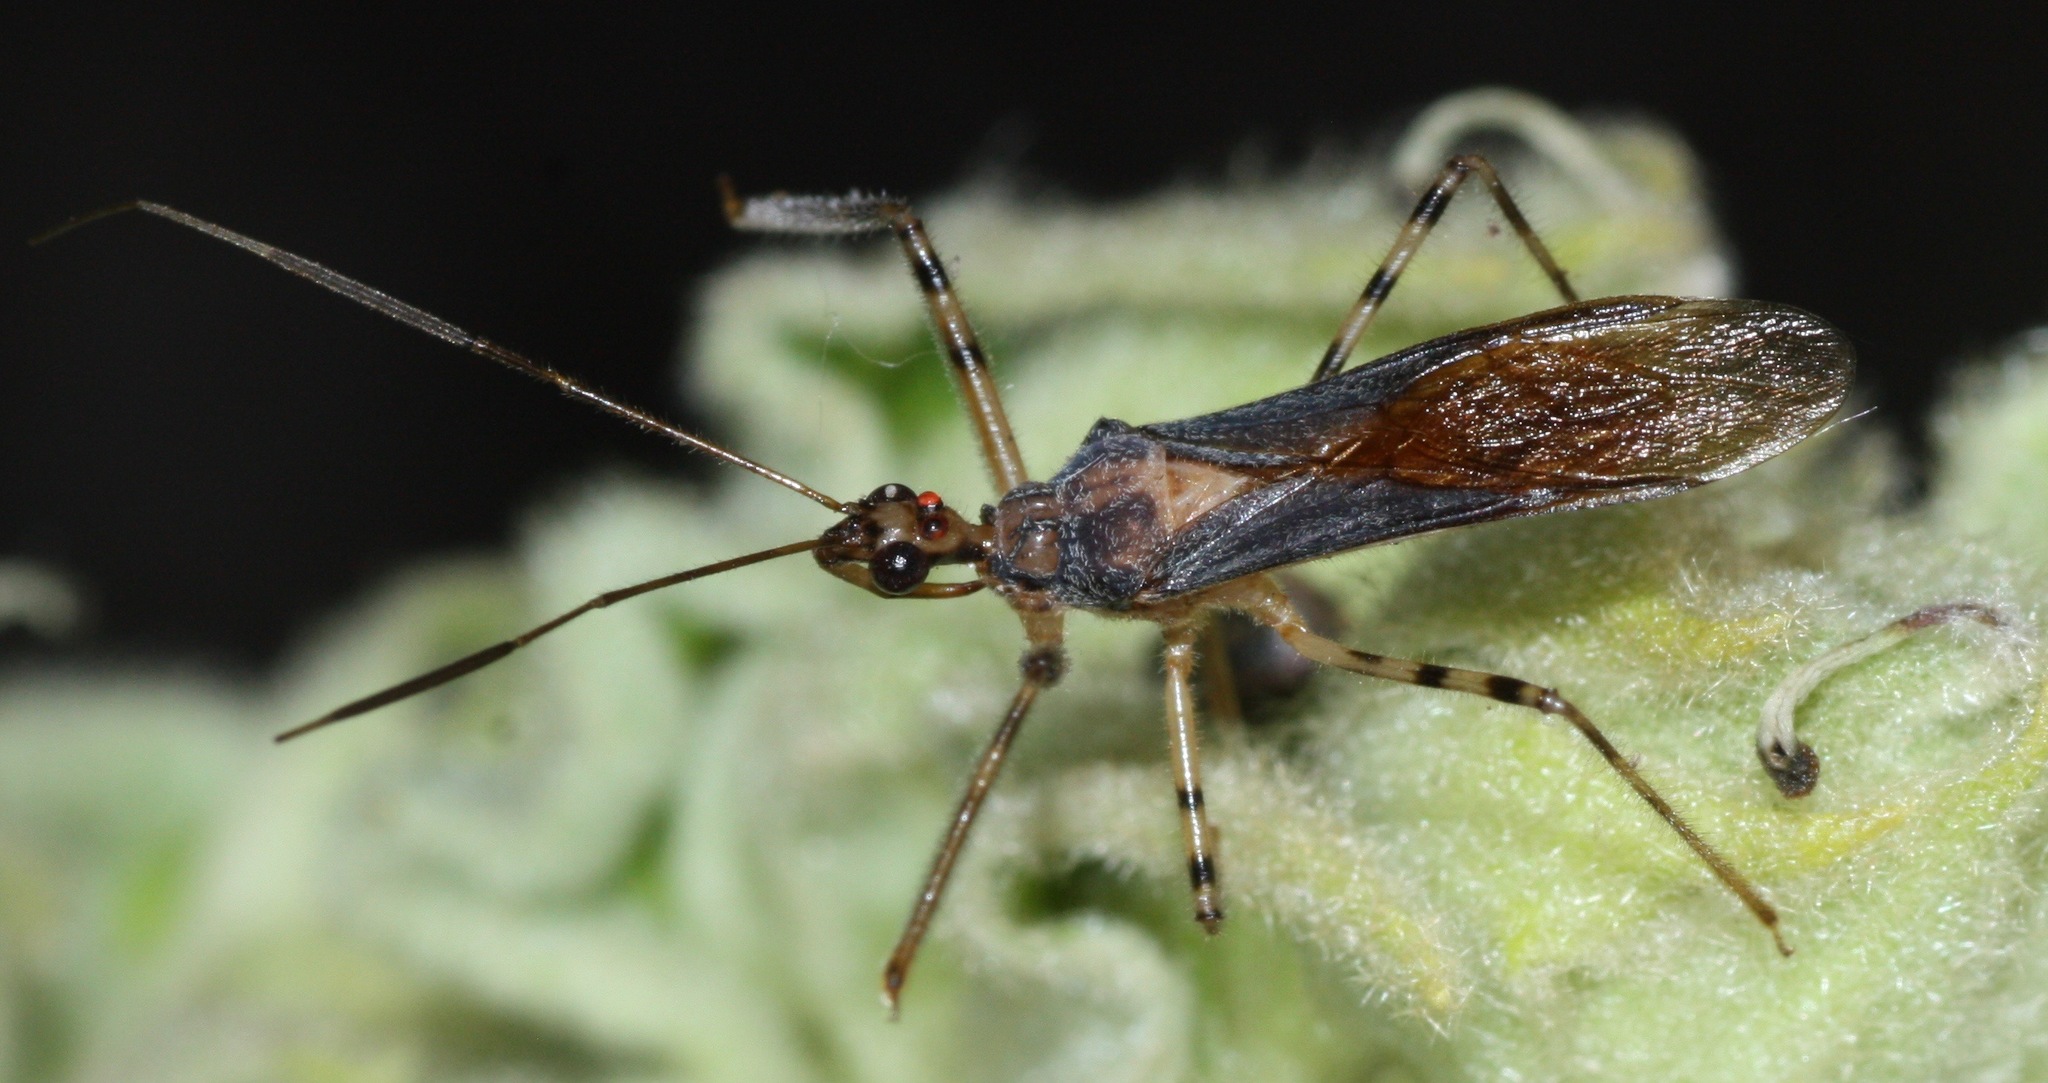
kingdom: Animalia
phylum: Arthropoda
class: Insecta
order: Hemiptera
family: Reduviidae
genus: Castolus
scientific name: Castolus ferox
